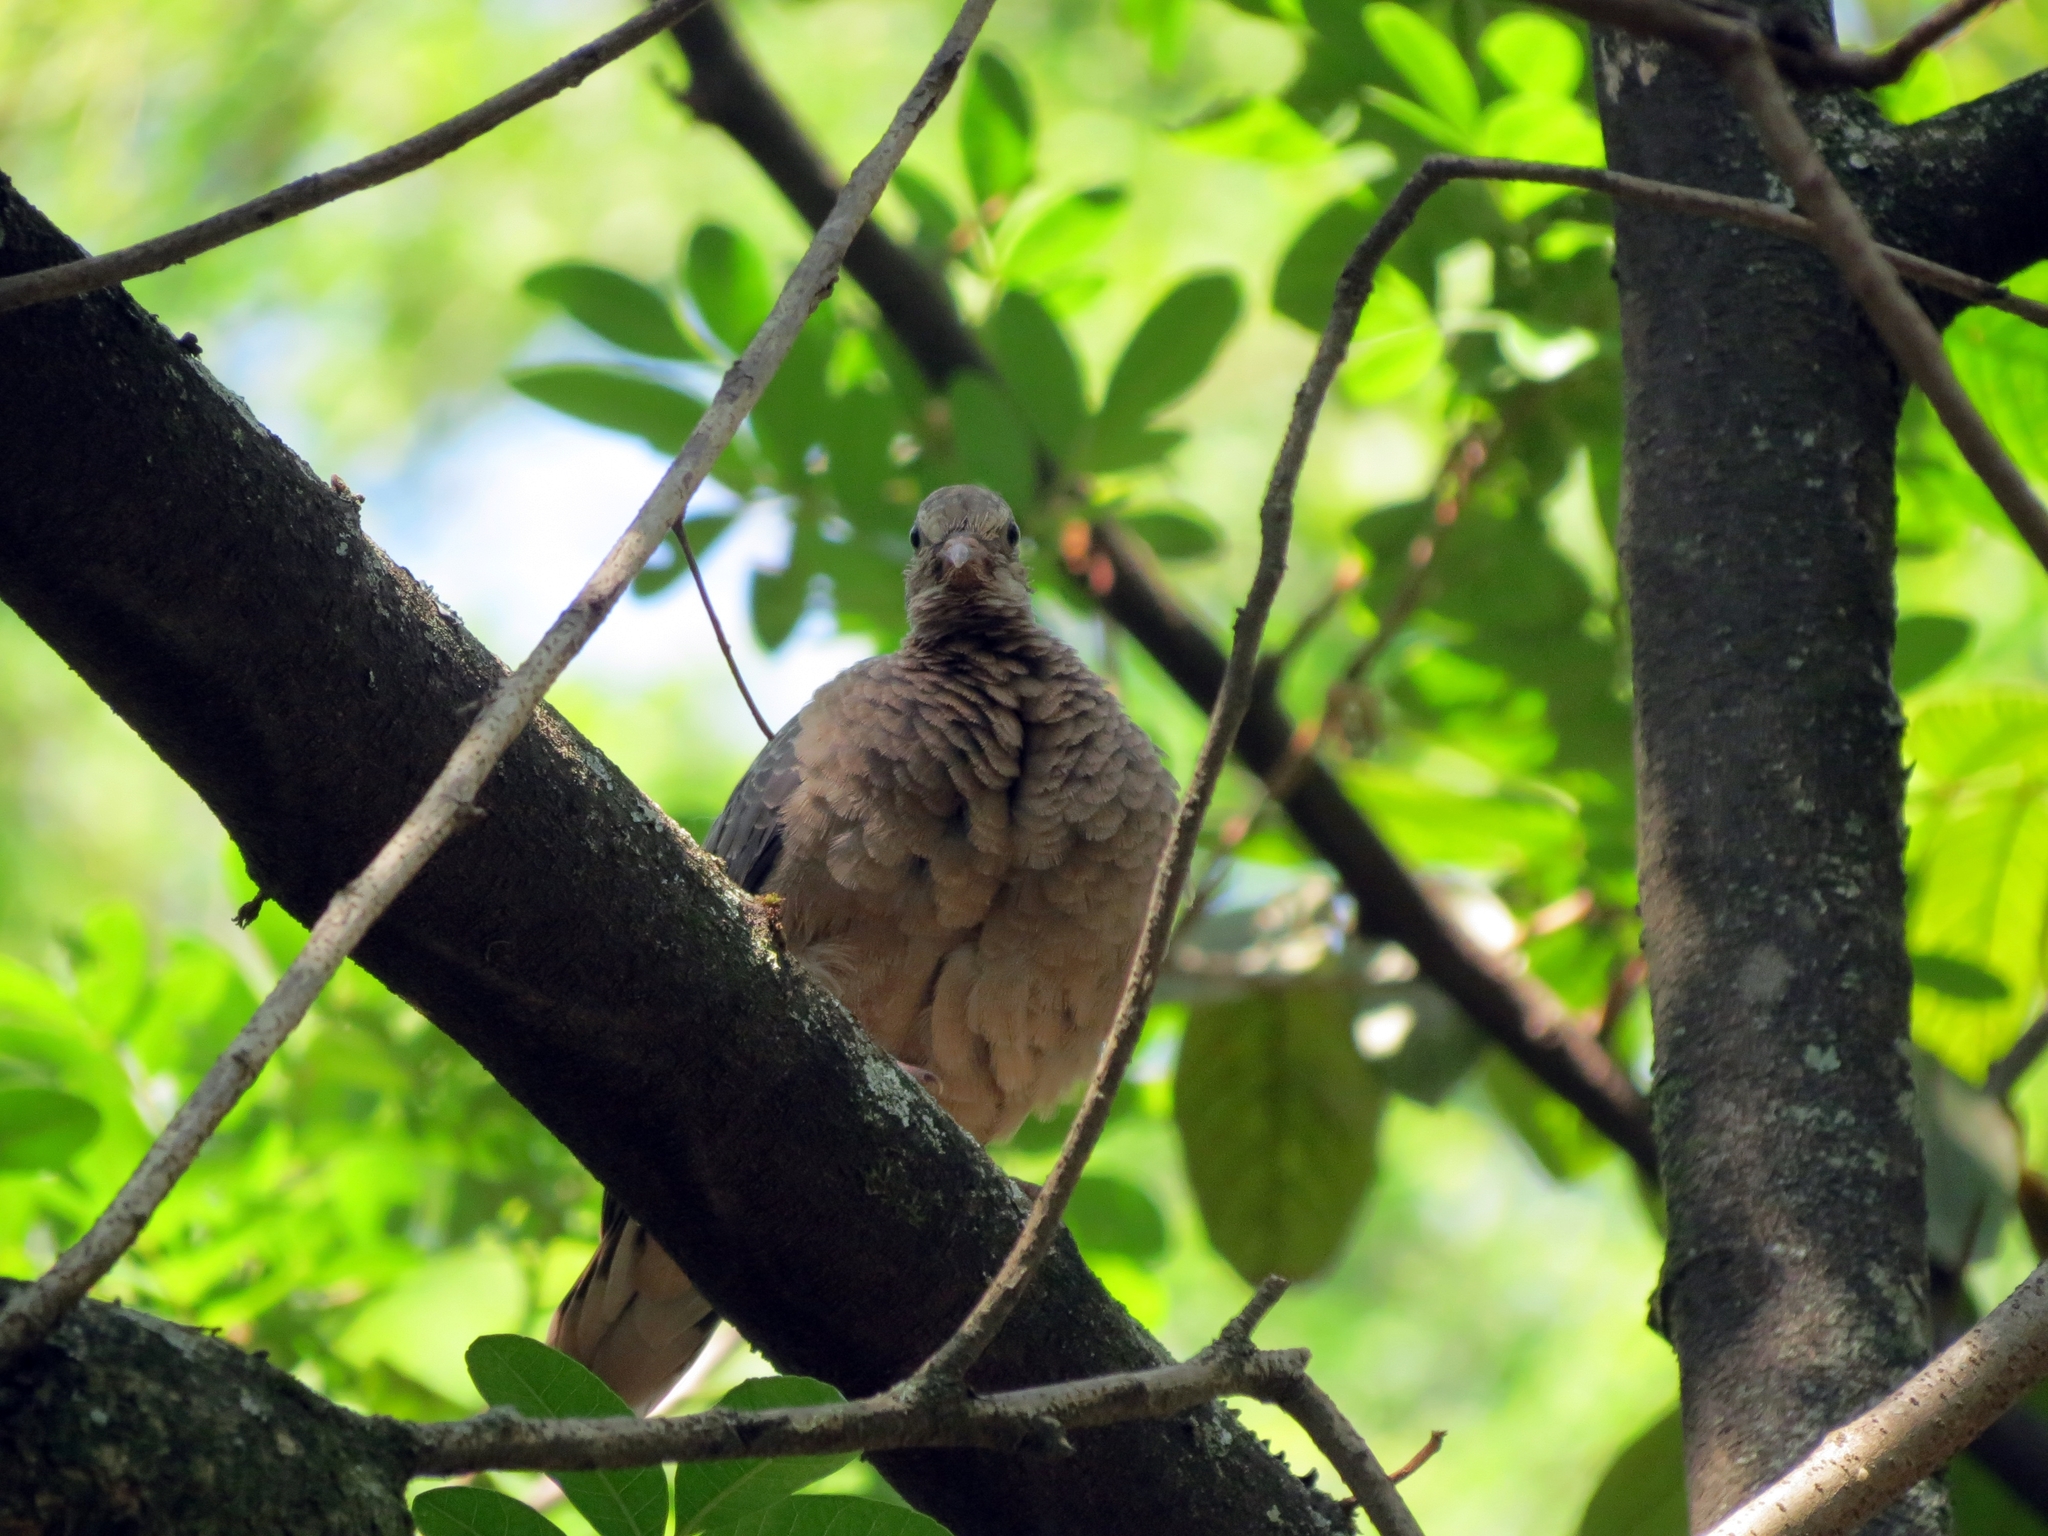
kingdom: Animalia
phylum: Chordata
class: Aves
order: Columbiformes
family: Columbidae
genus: Zenaida
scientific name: Zenaida auriculata
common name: Eared dove
